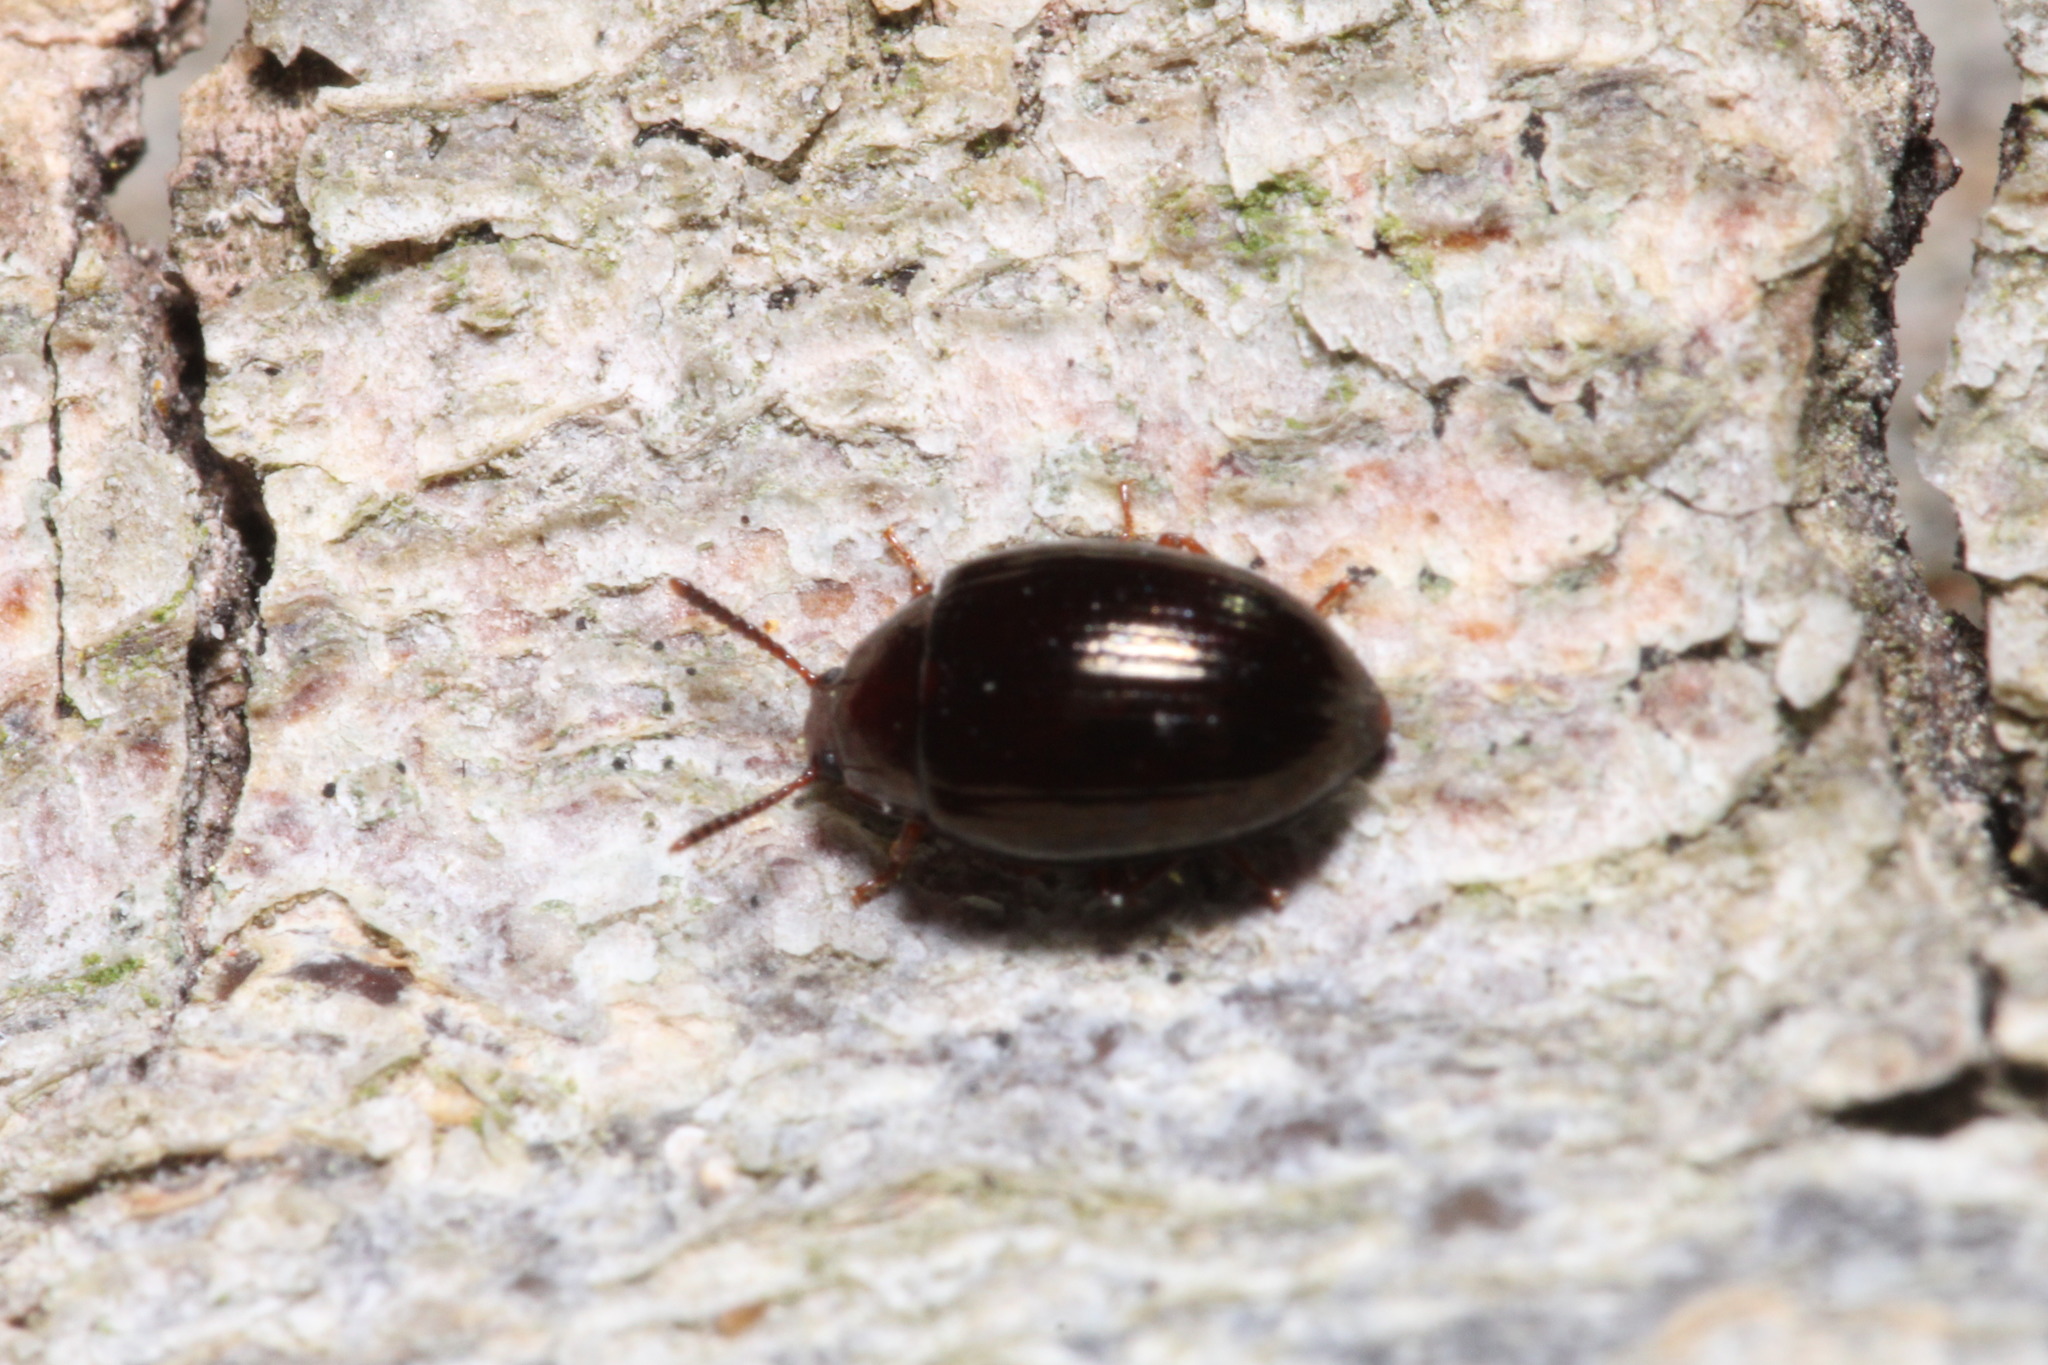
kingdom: Animalia
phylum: Arthropoda
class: Insecta
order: Coleoptera
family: Tenebrionidae
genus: Blapstinus
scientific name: Blapstinus metallicus
